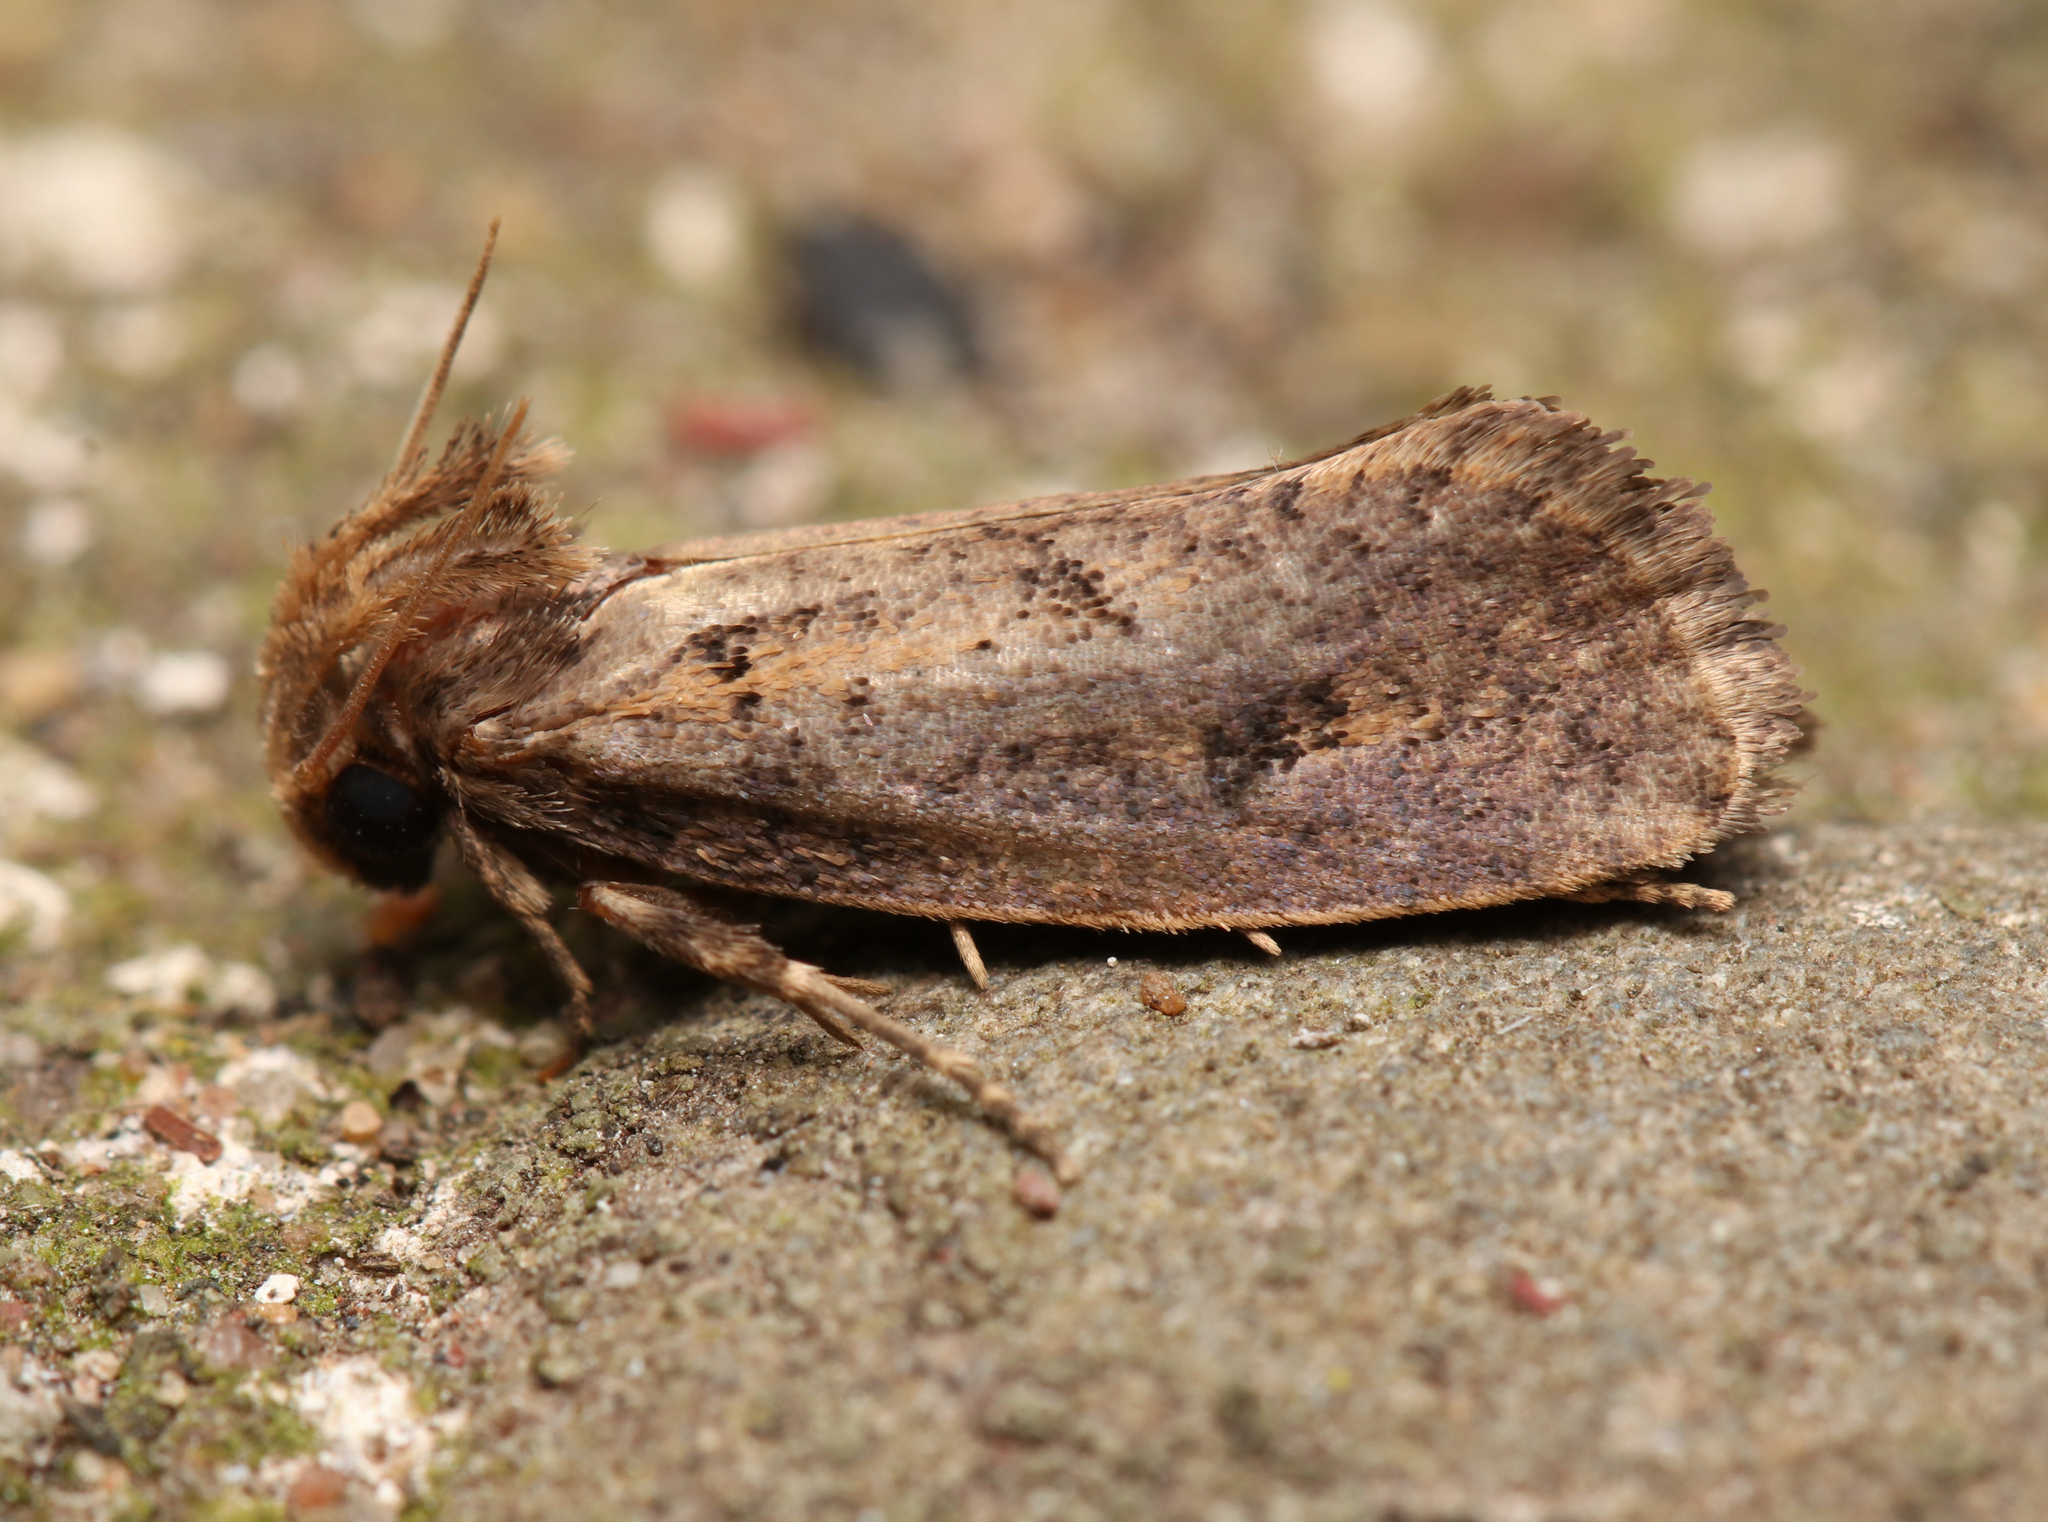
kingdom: Animalia
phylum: Arthropoda
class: Insecta
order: Lepidoptera
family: Tineidae
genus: Acrolophus
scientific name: Acrolophus popeanella
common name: Clemens' grass tubeworm moth
